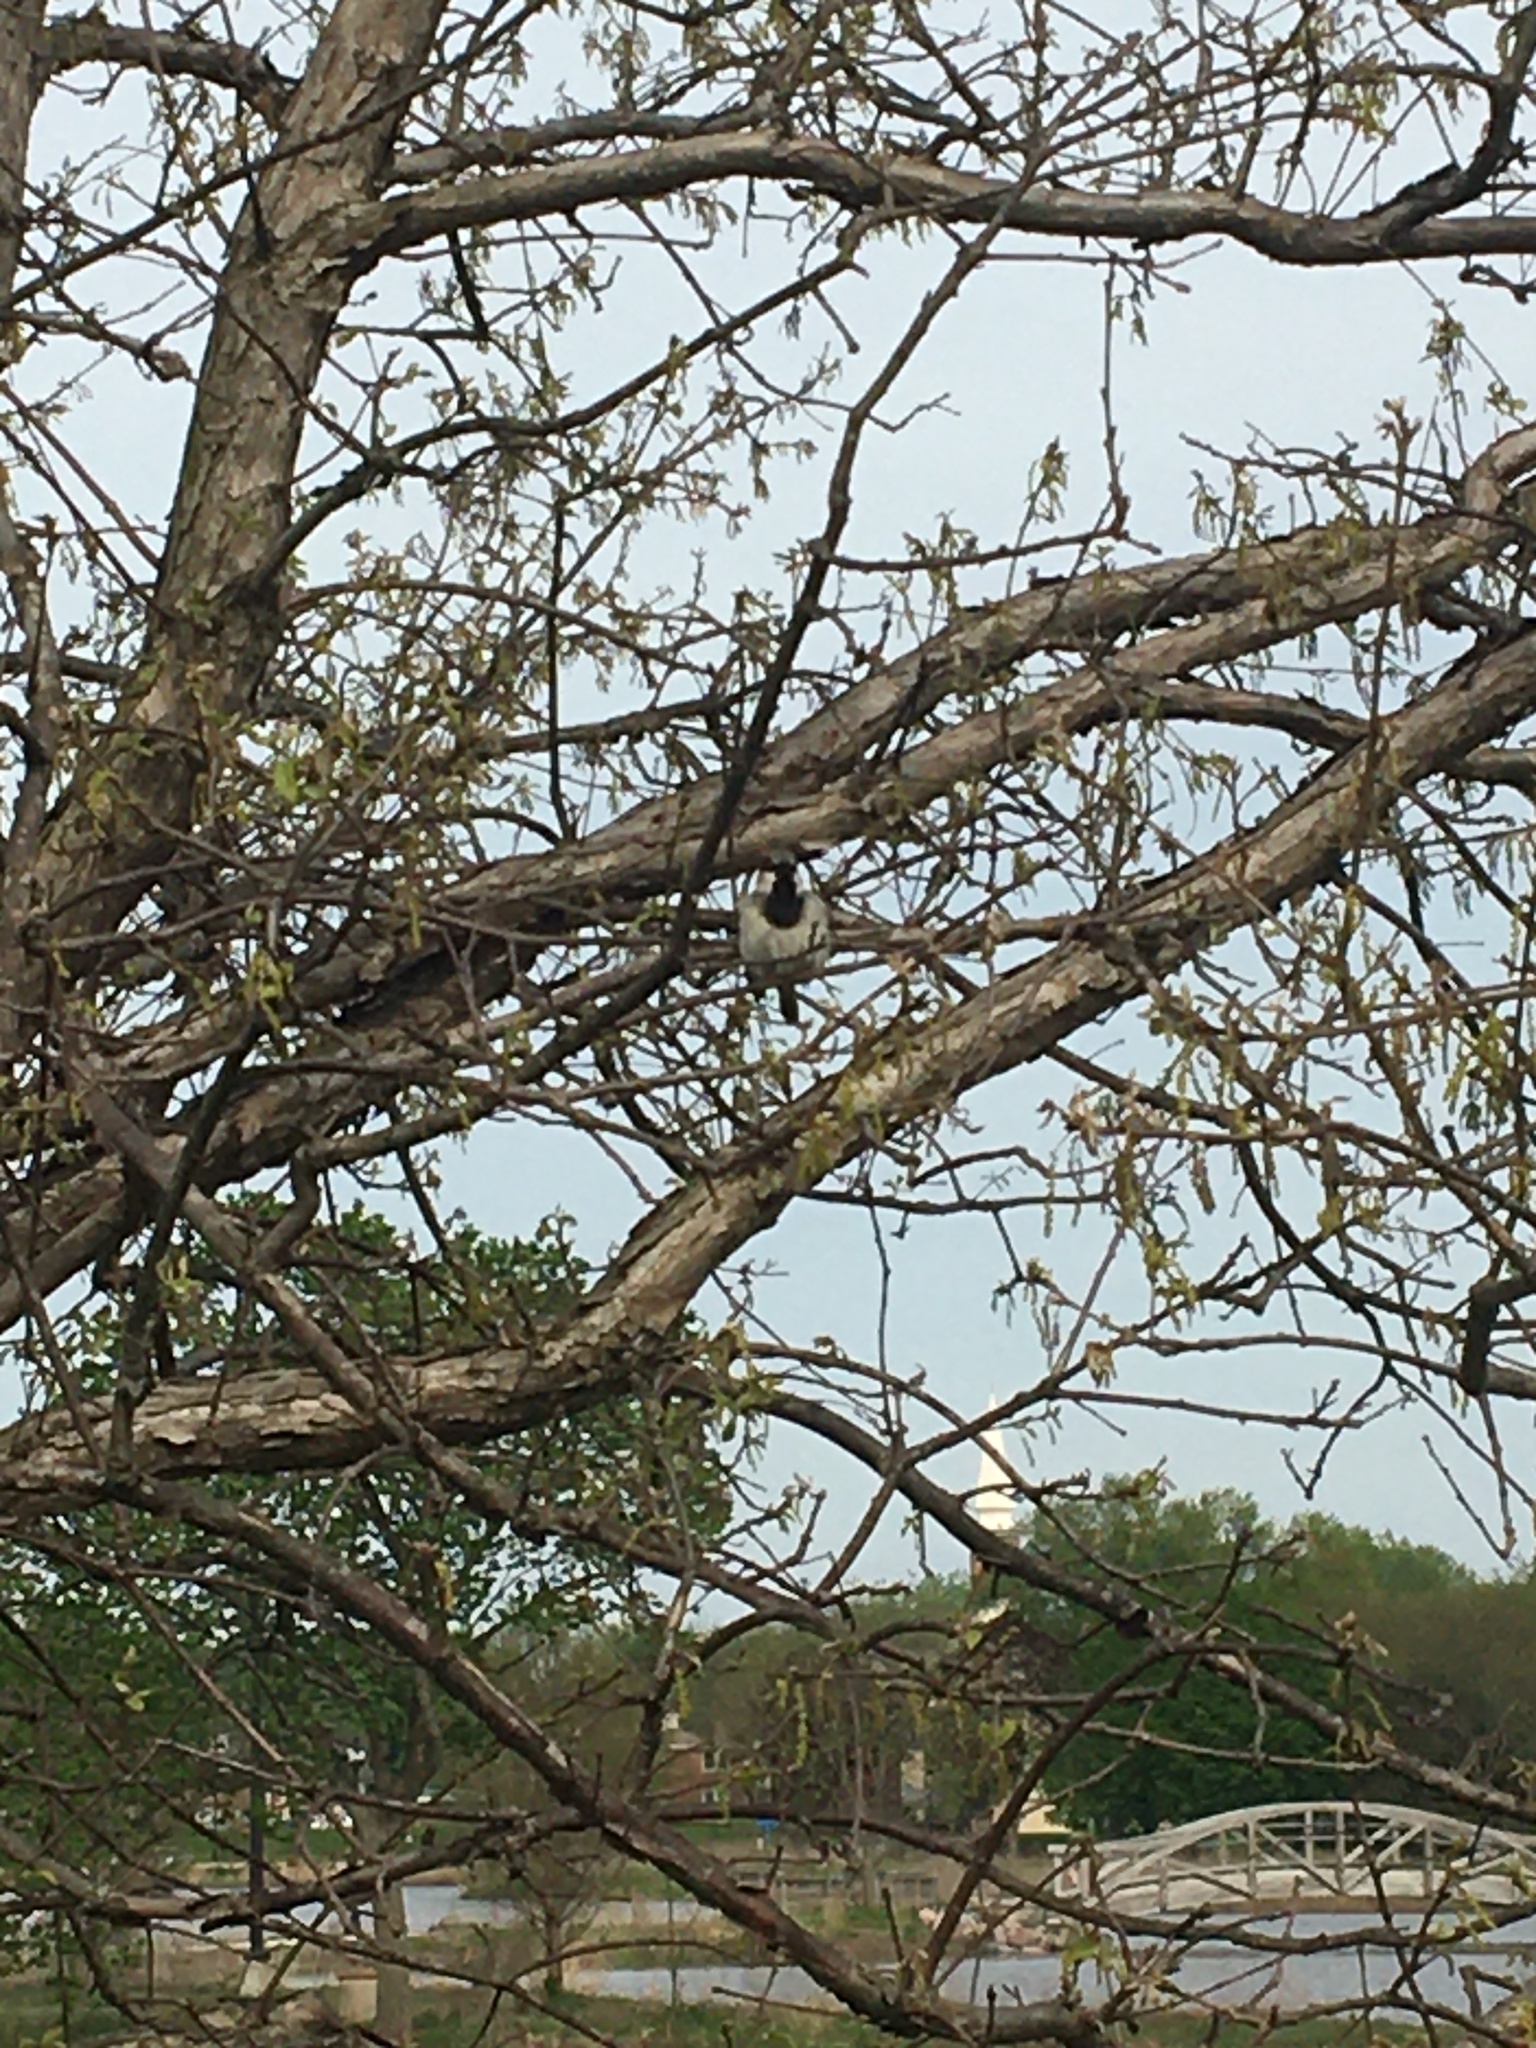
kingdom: Animalia
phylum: Chordata
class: Aves
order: Passeriformes
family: Passeridae
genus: Passer
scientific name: Passer domesticus
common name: House sparrow
